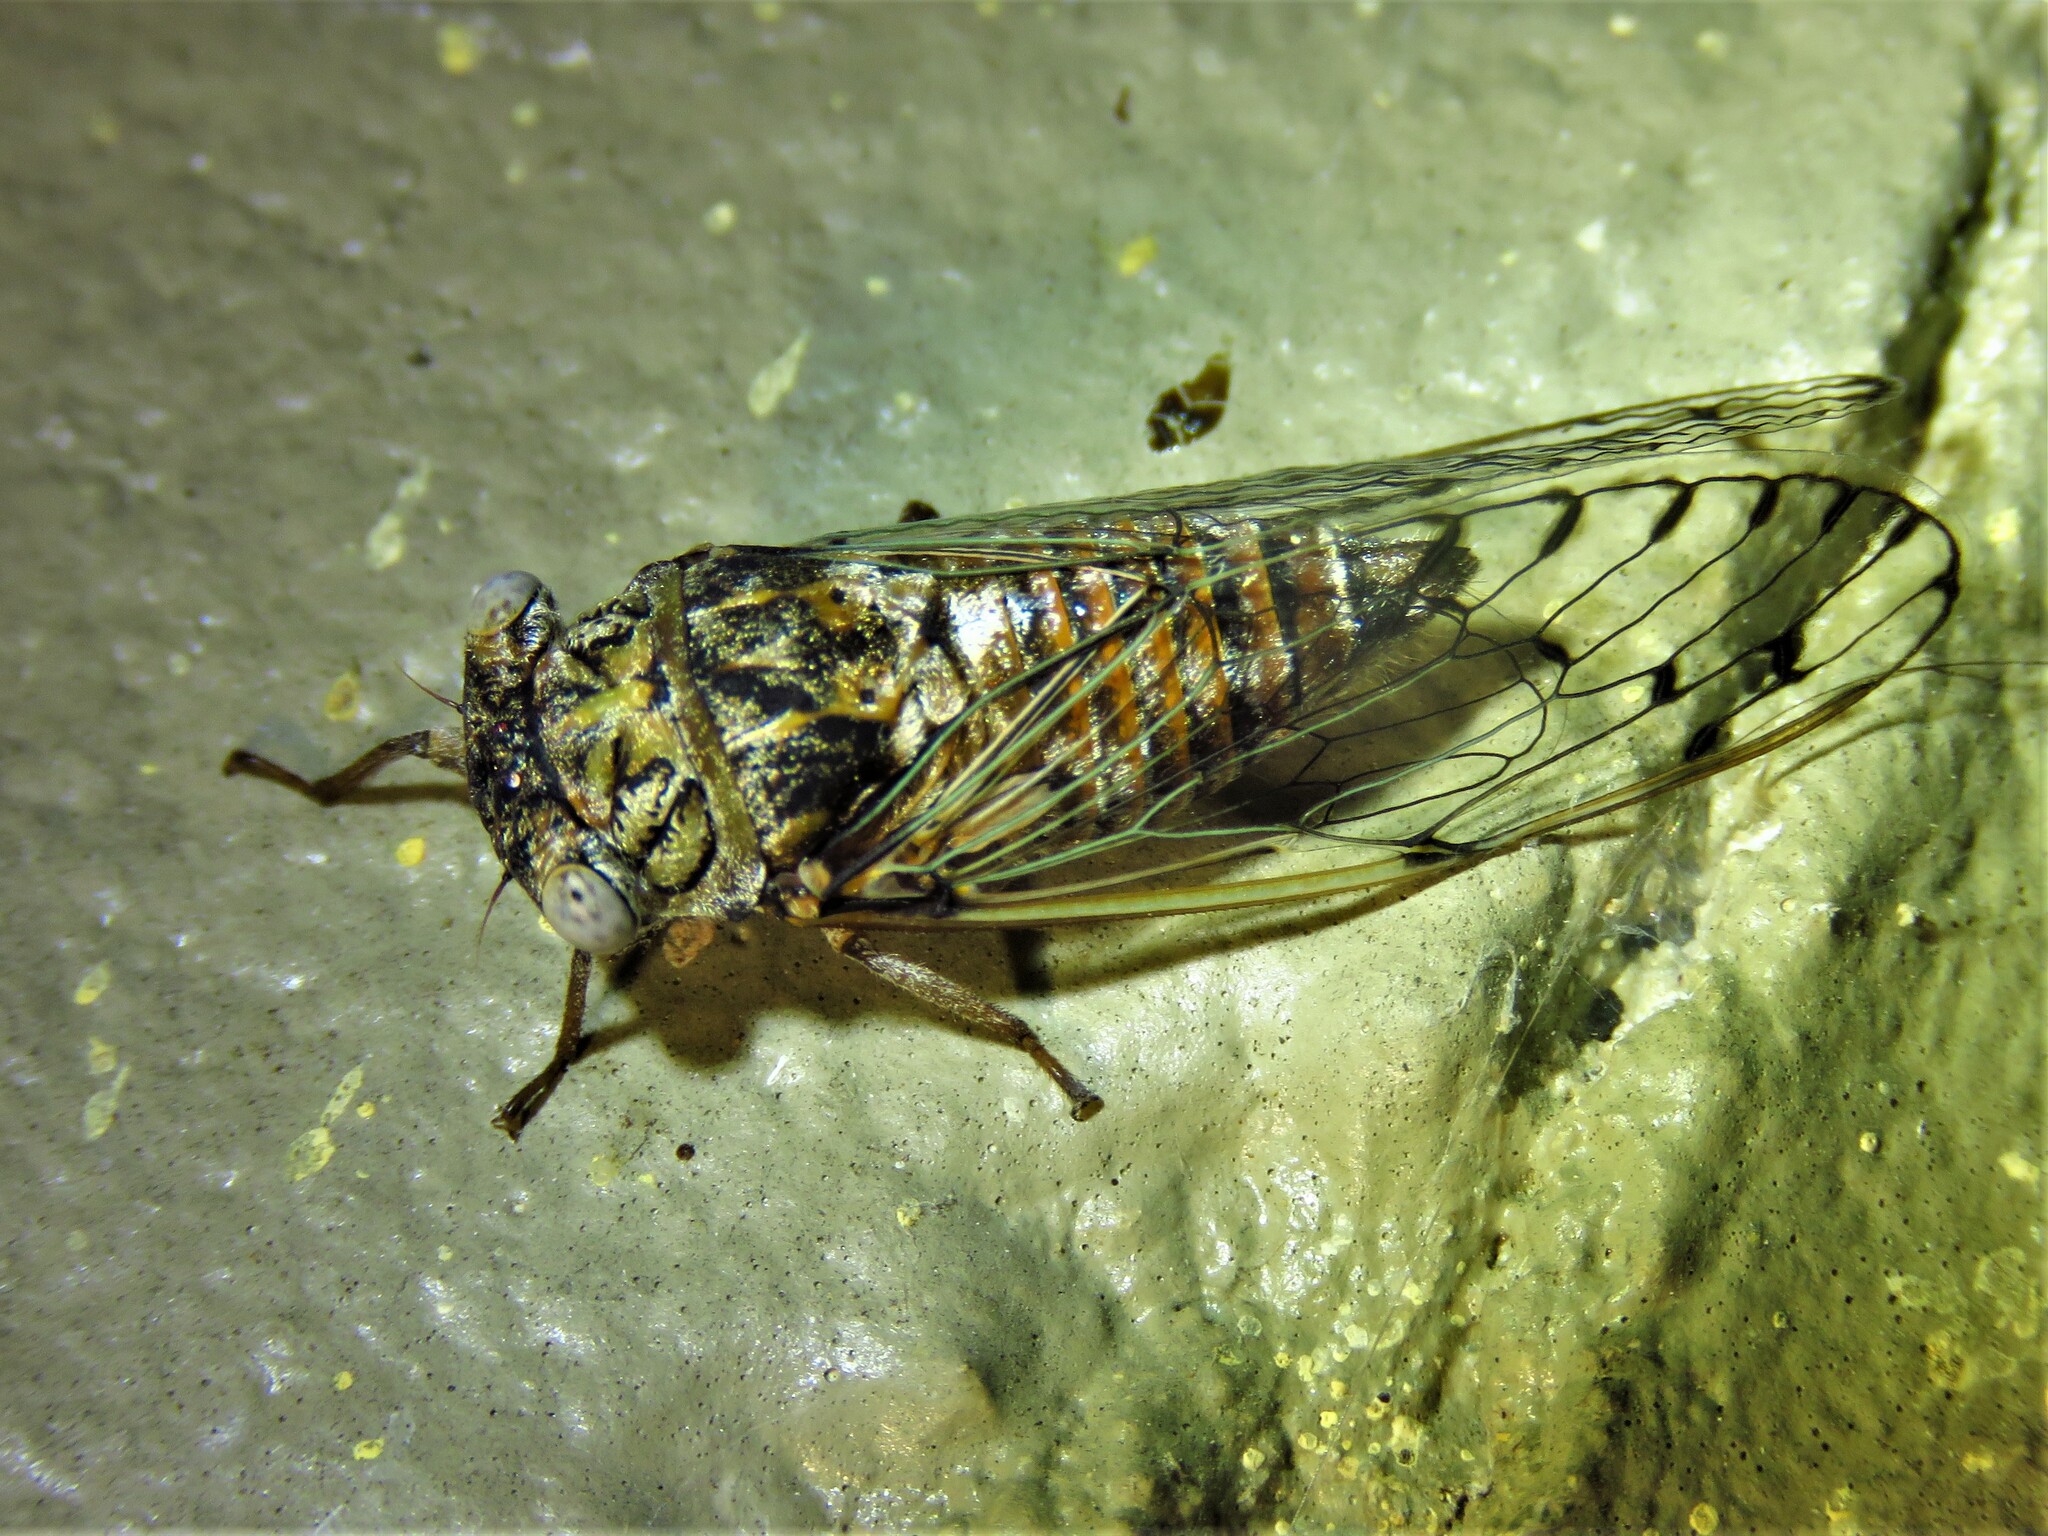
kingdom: Animalia
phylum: Arthropoda
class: Insecta
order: Hemiptera
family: Cicadidae
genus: Pacarina
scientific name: Pacarina puella
